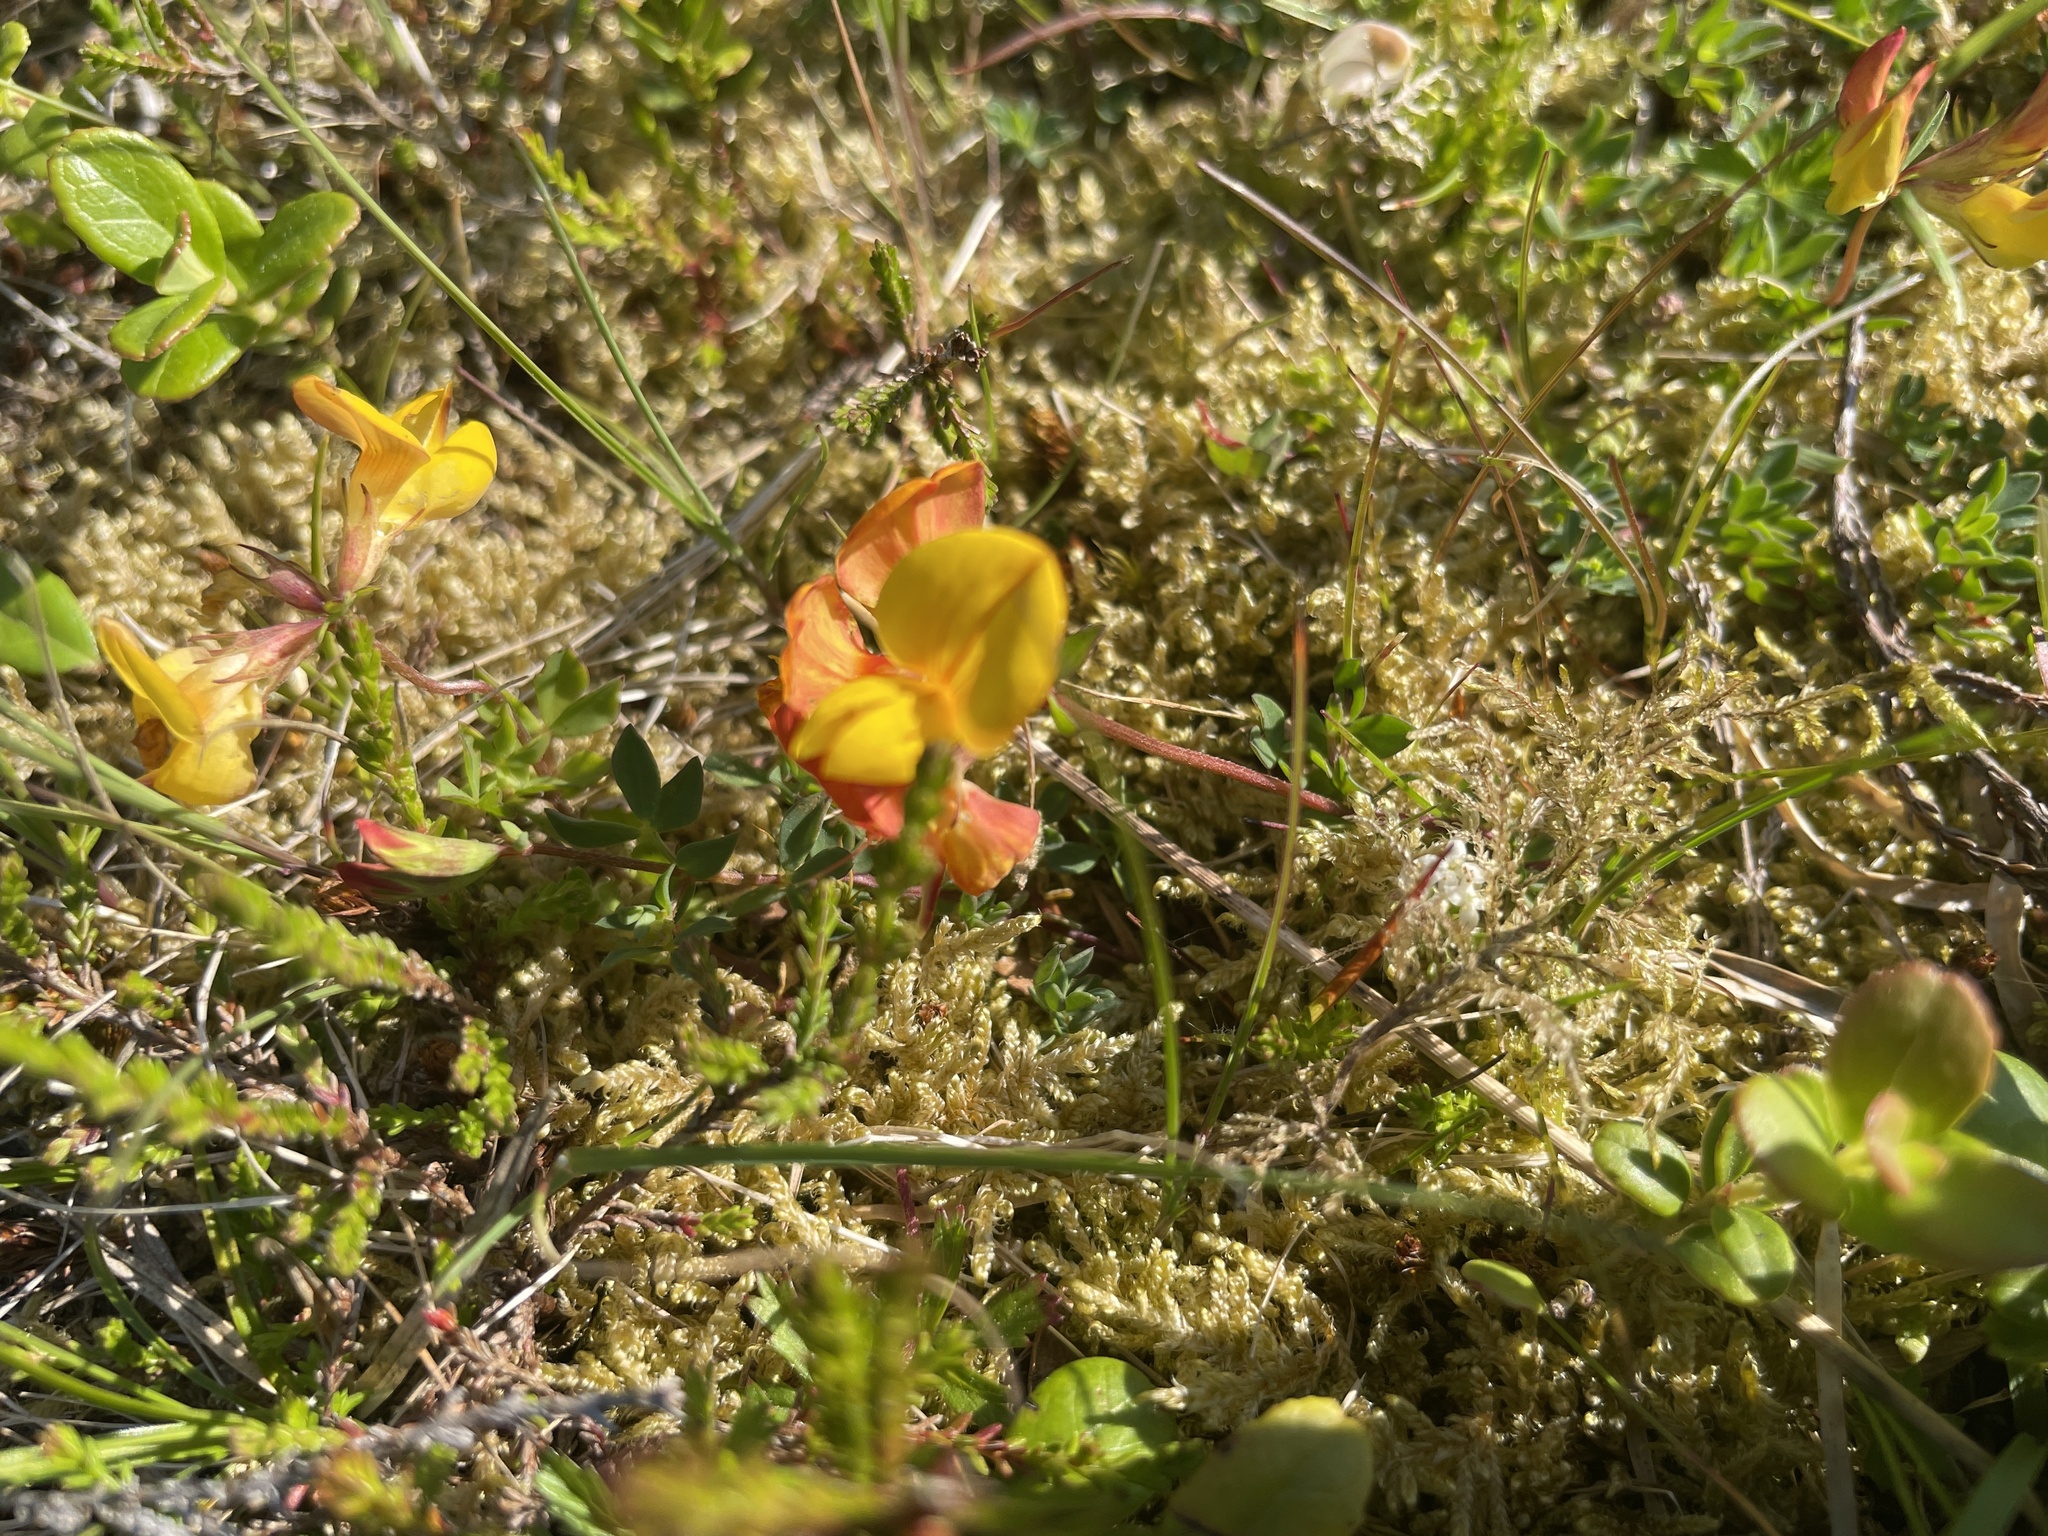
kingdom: Plantae
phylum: Tracheophyta
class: Magnoliopsida
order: Fabales
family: Fabaceae
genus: Lotus
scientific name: Lotus corniculatus
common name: Common bird's-foot-trefoil
